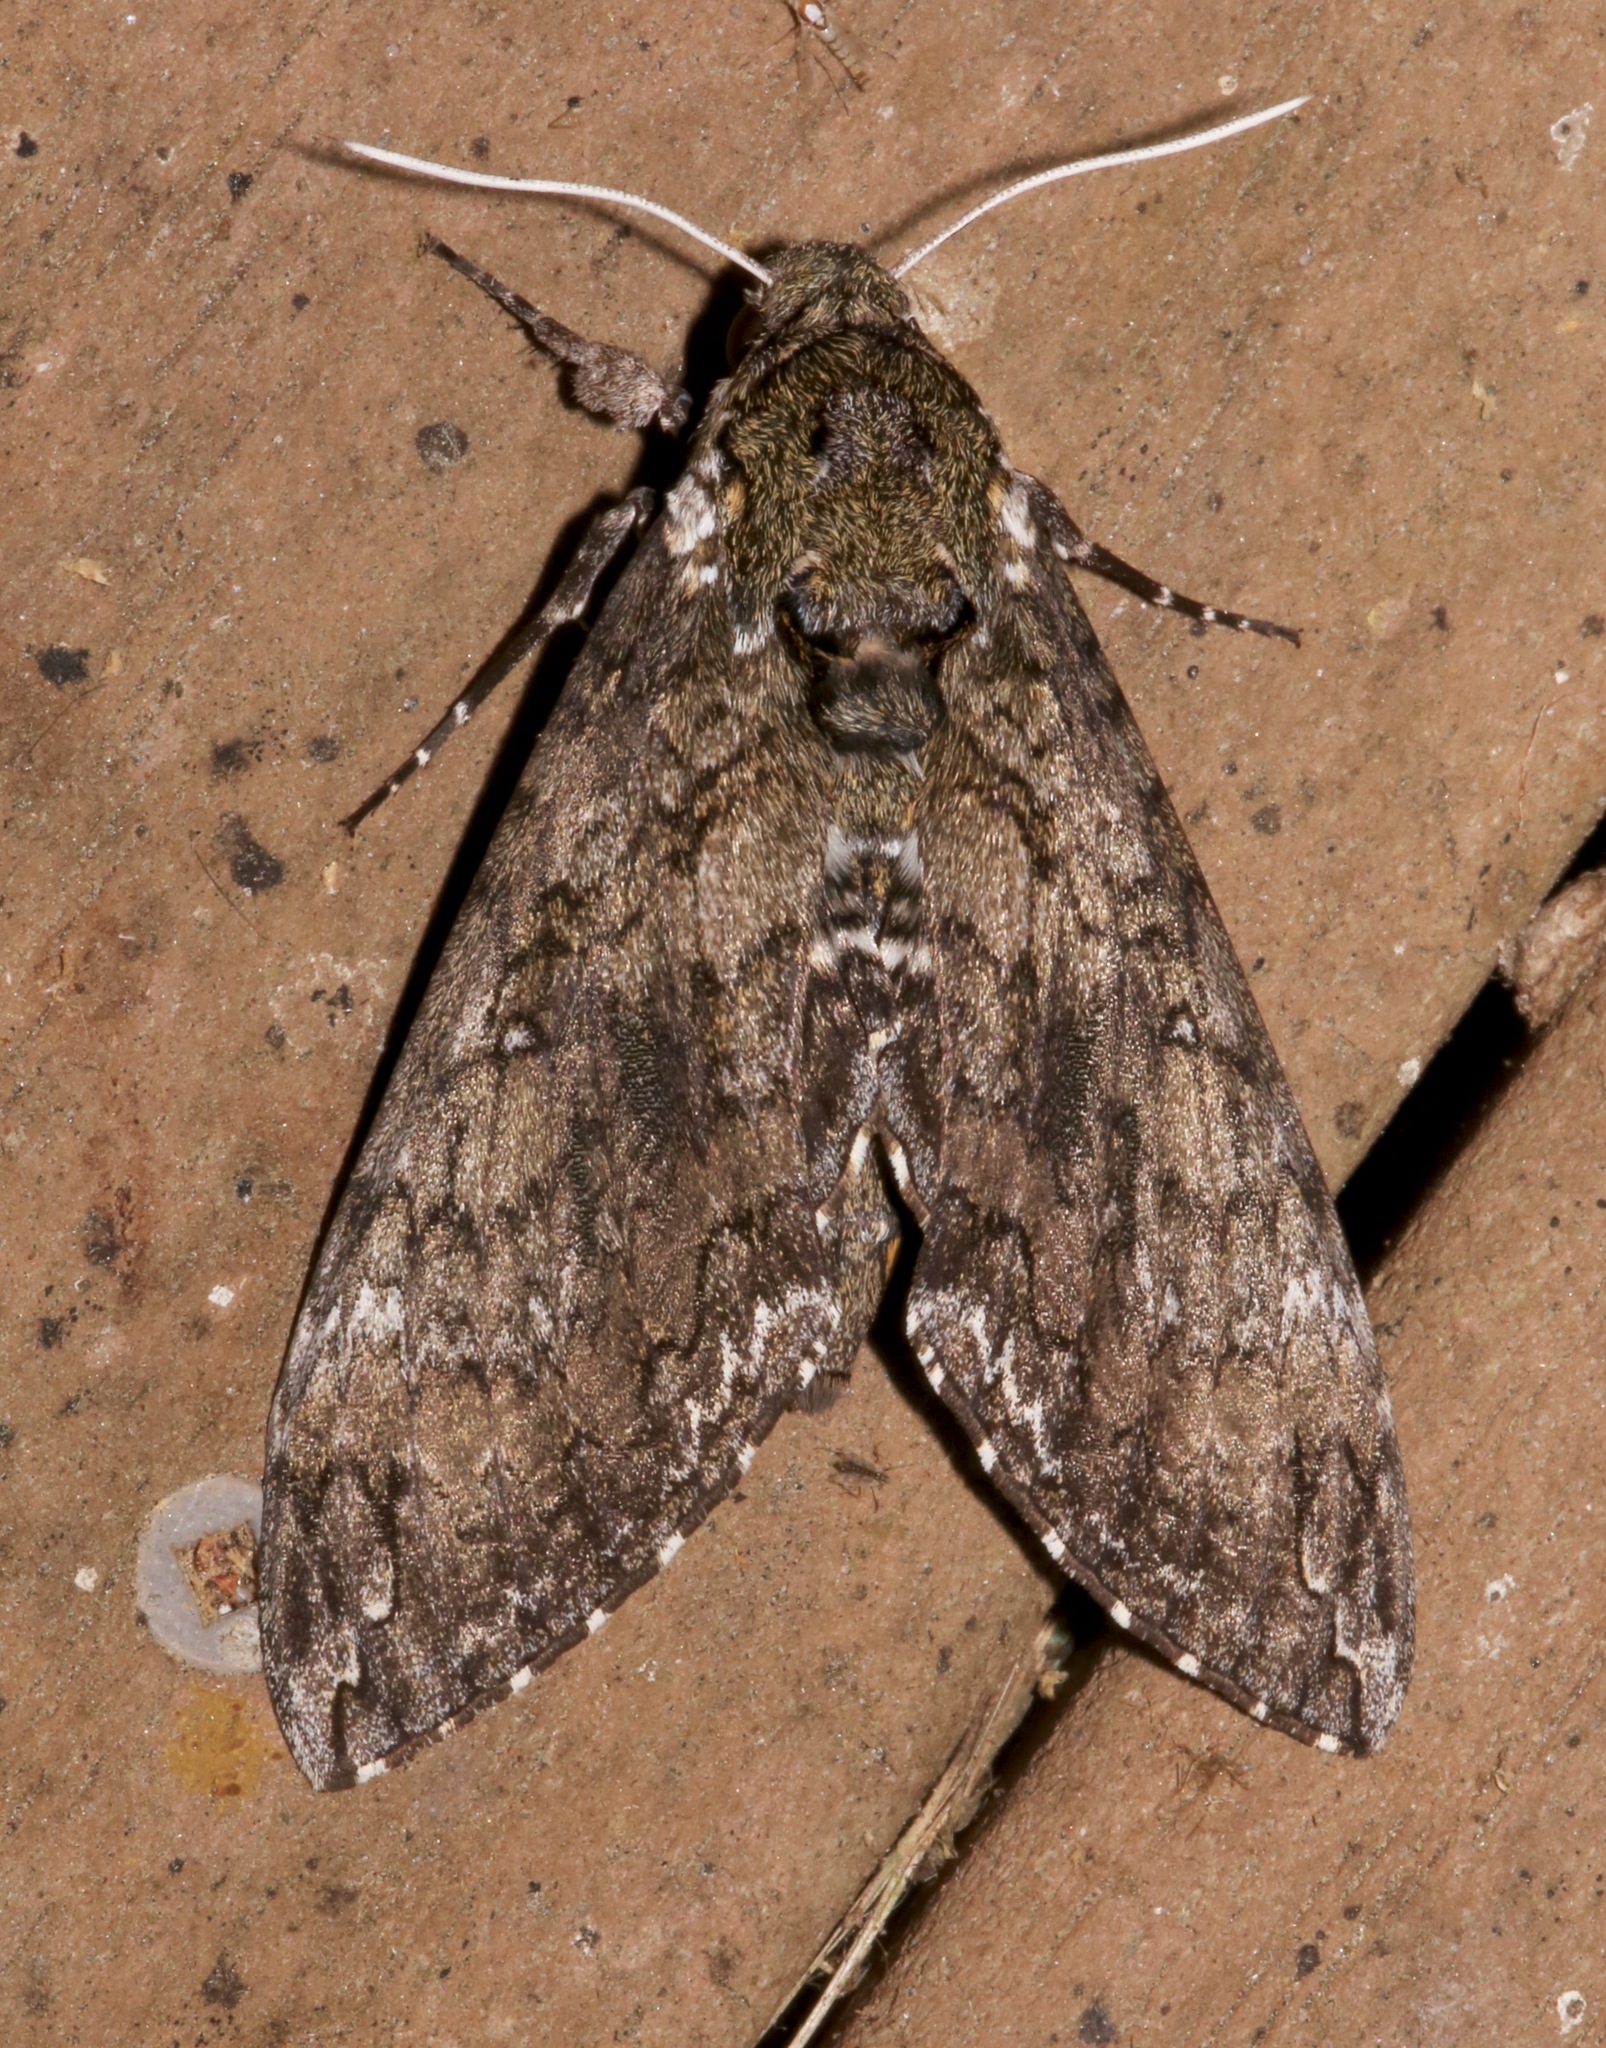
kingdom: Animalia
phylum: Arthropoda
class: Insecta
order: Lepidoptera
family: Sphingidae
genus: Manduca
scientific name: Manduca sexta
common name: Carolina sphinx
